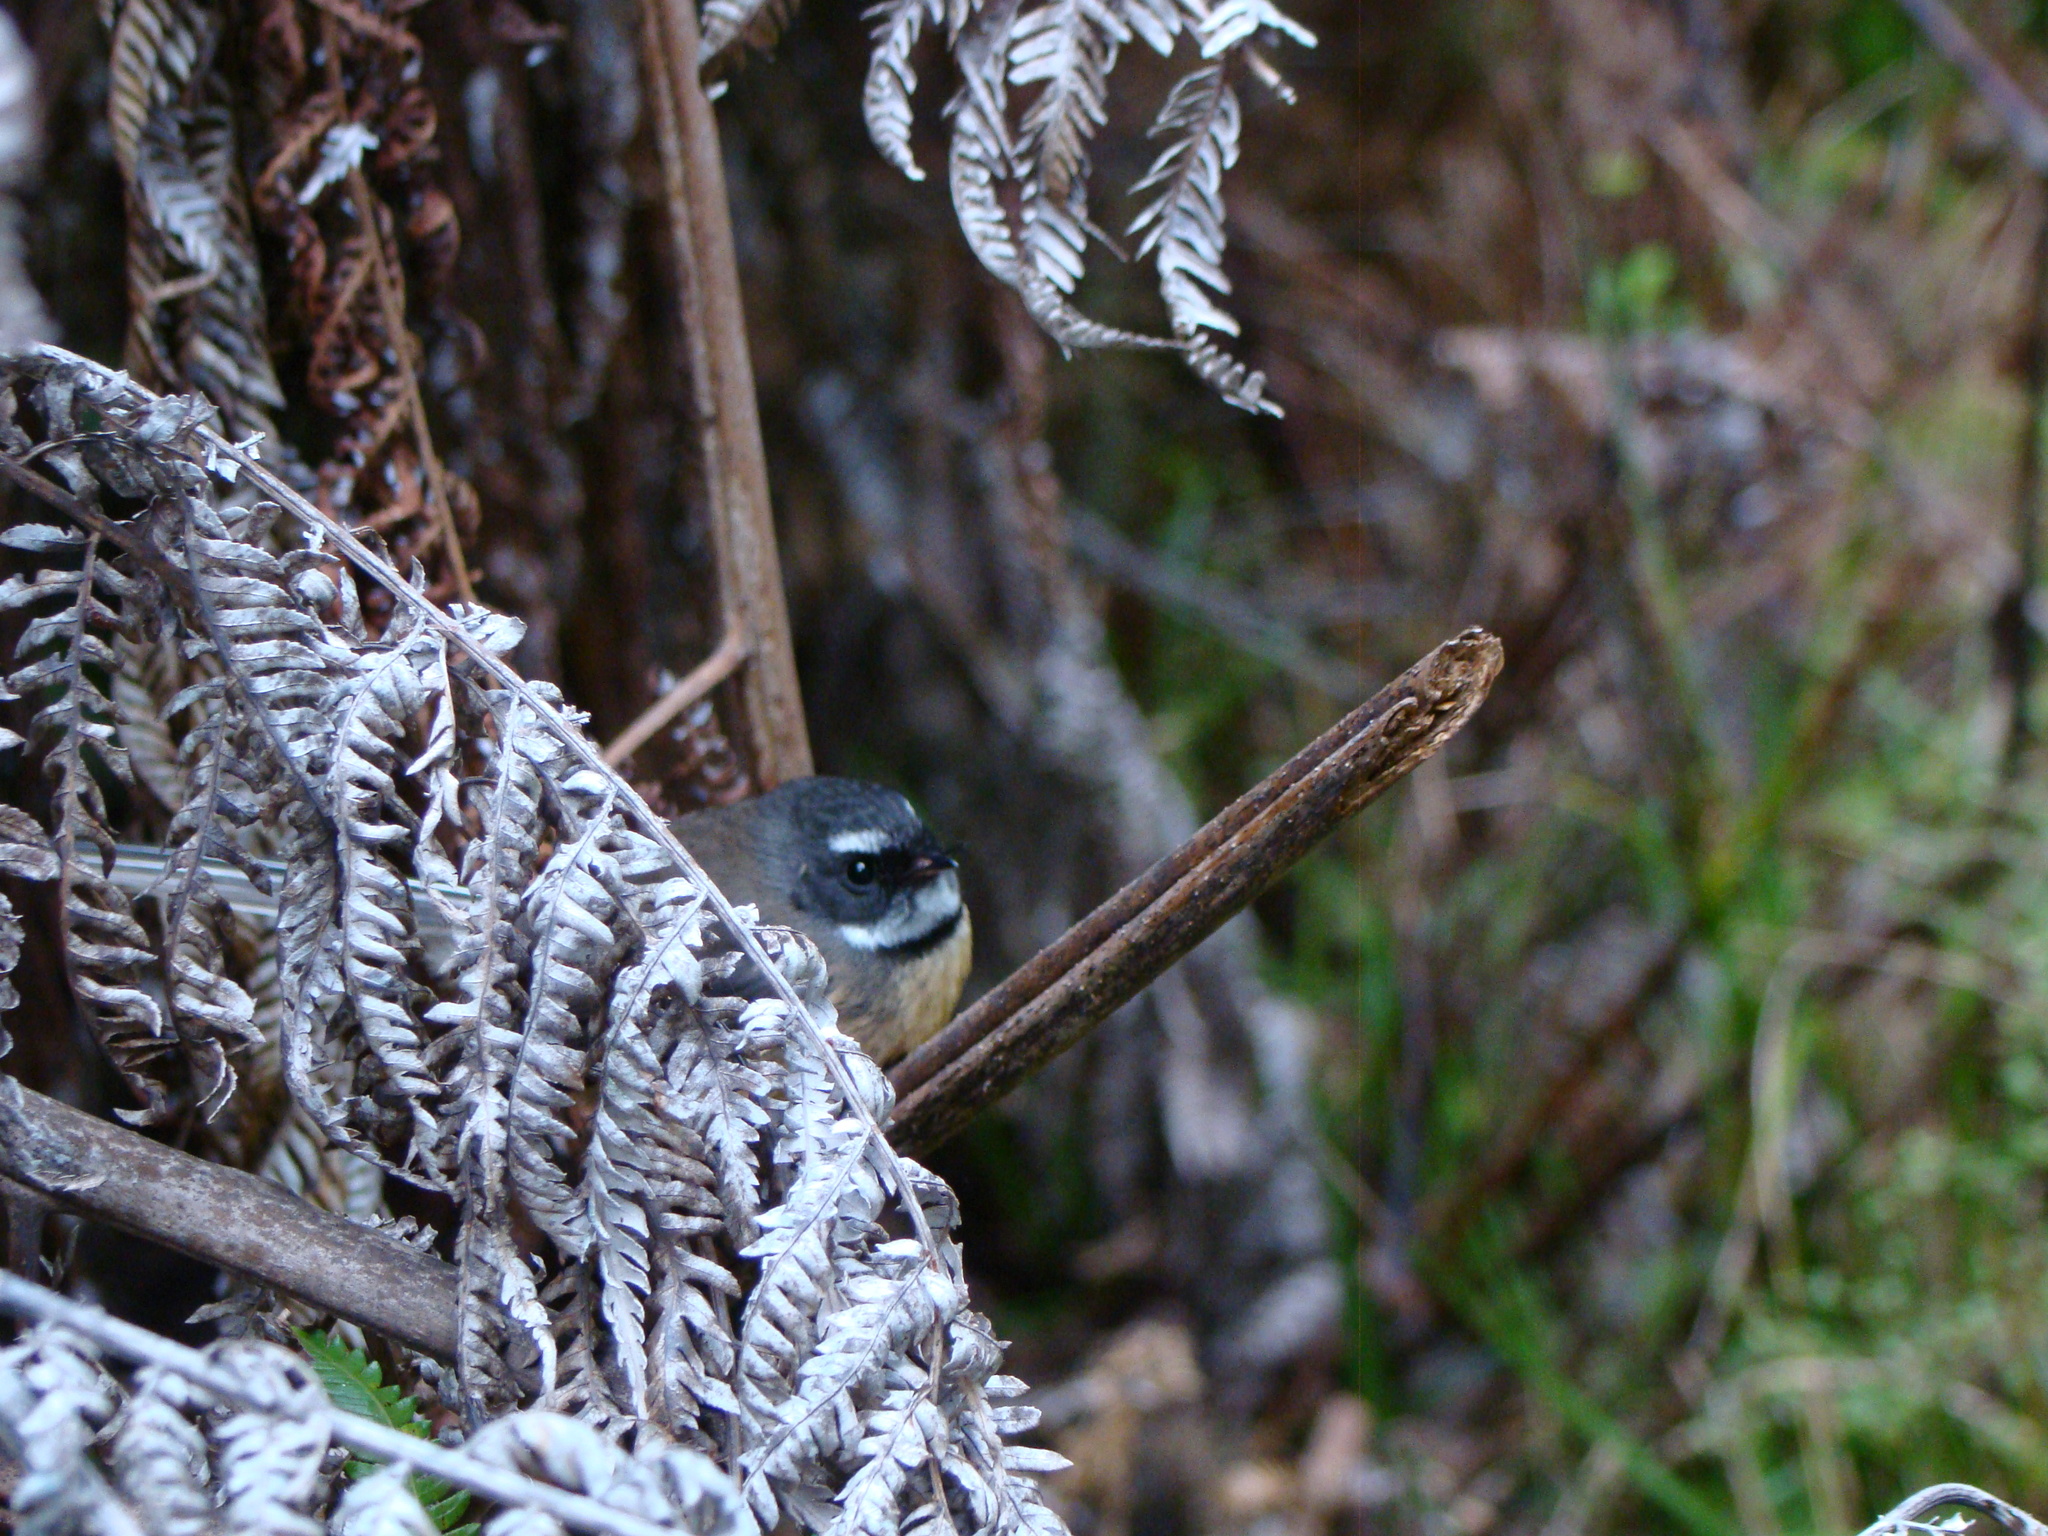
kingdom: Animalia
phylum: Chordata
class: Aves
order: Passeriformes
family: Rhipiduridae
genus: Rhipidura
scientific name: Rhipidura fuliginosa
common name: New zealand fantail
